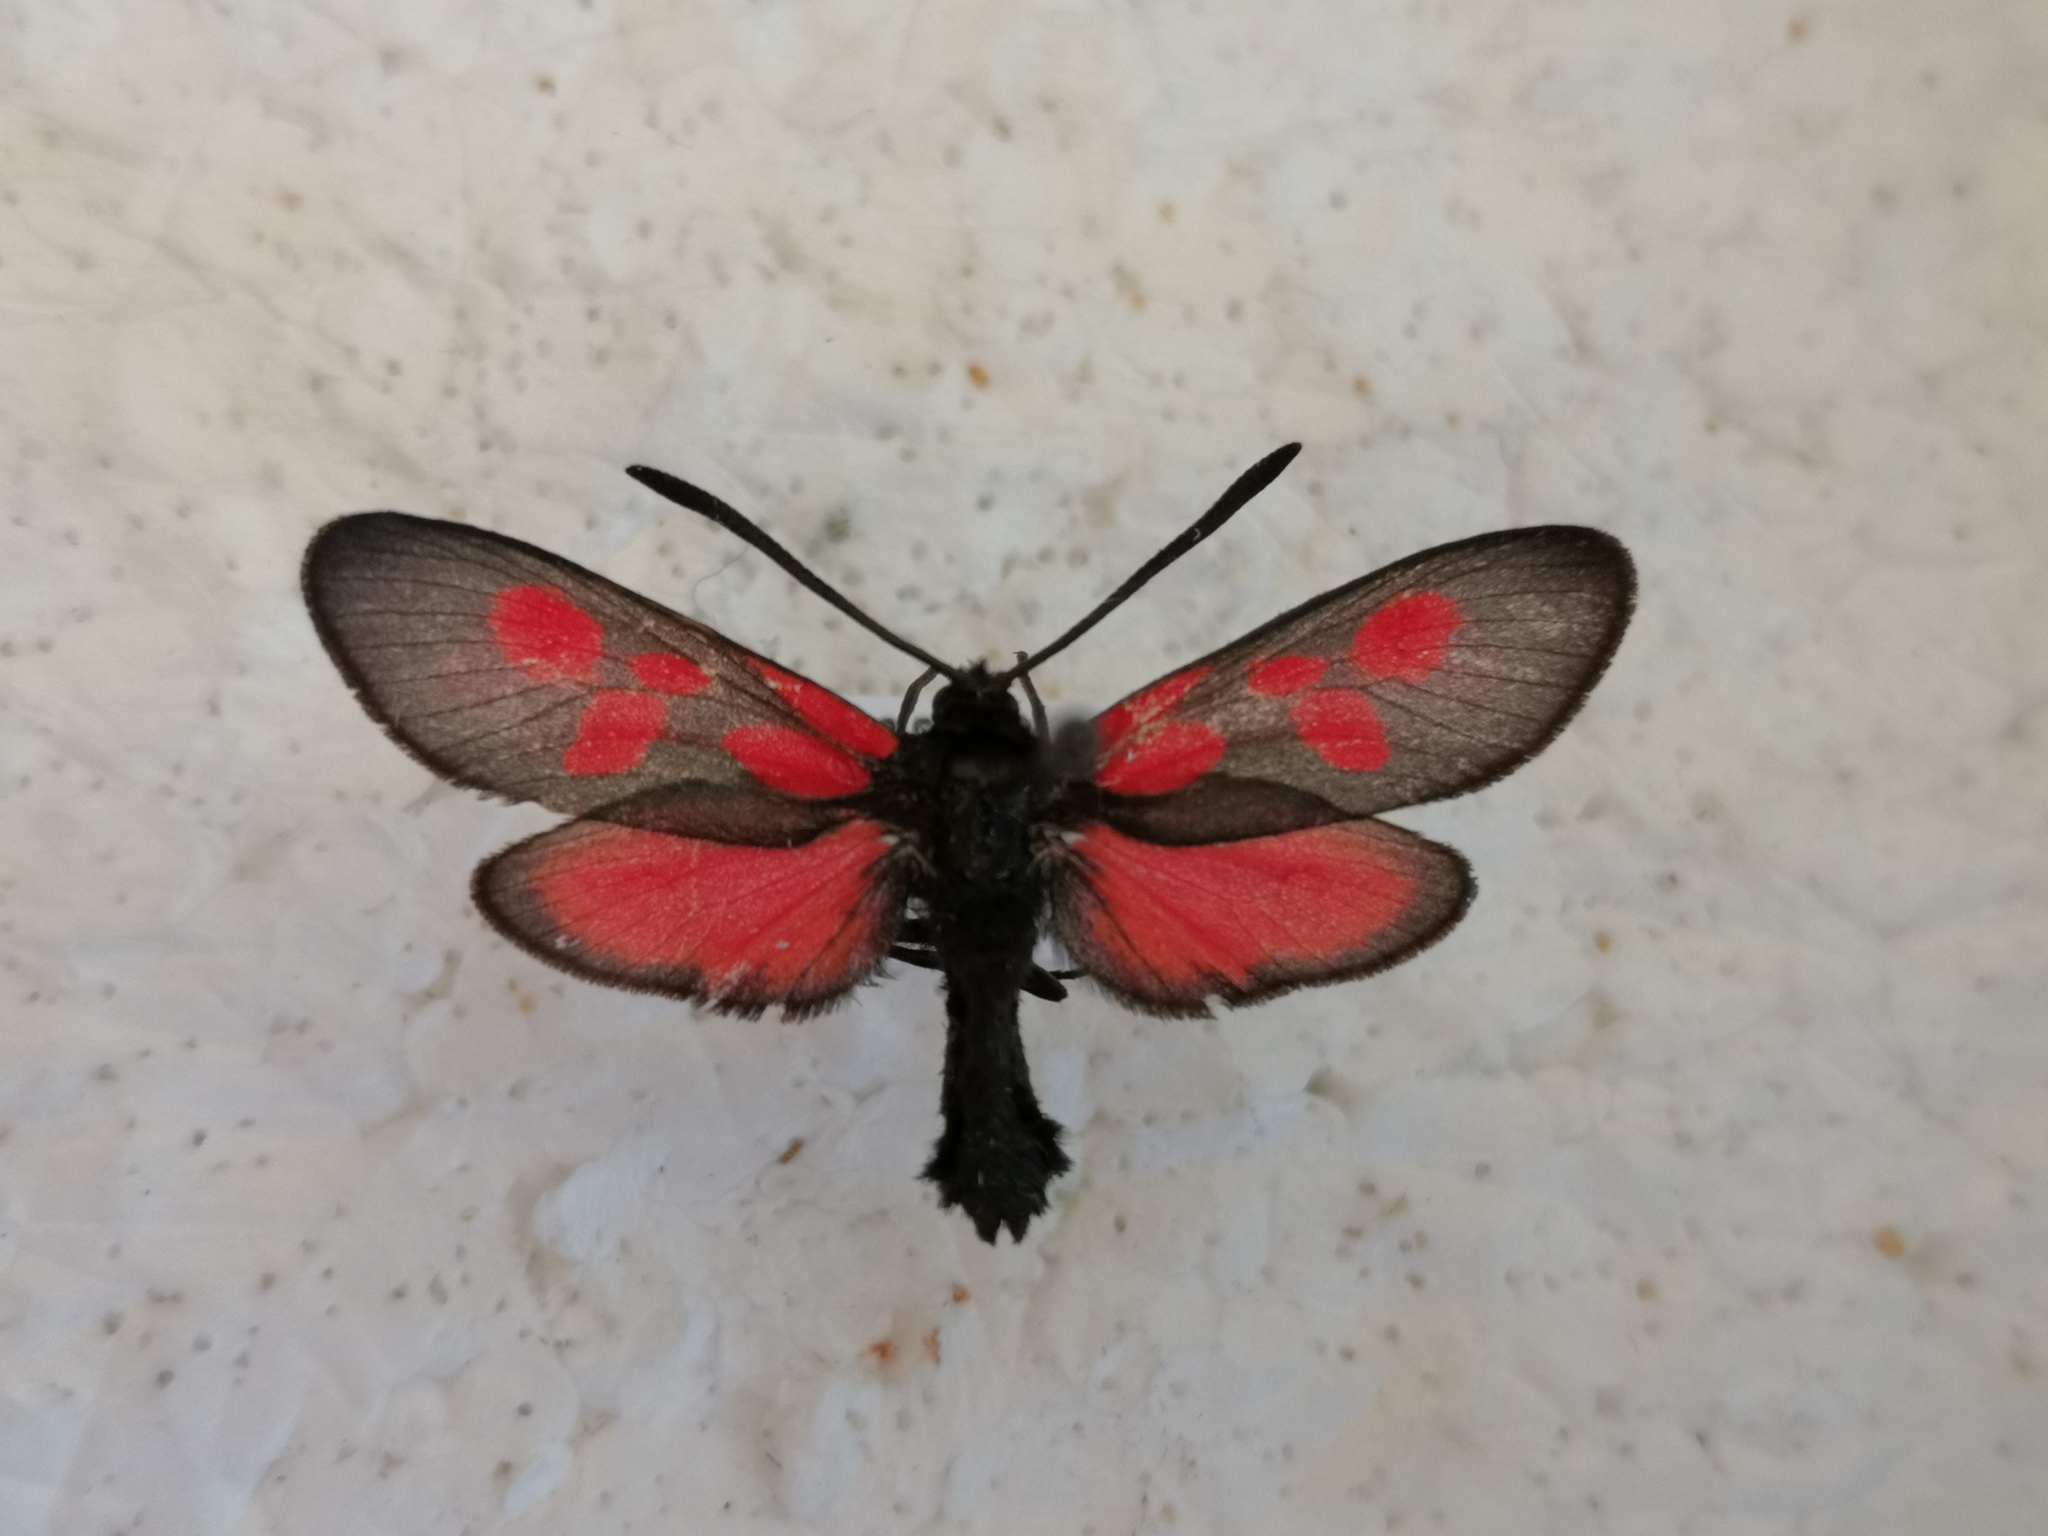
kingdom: Animalia
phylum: Arthropoda
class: Insecta
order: Lepidoptera
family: Zygaenidae
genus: Zygaena
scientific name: Zygaena trifolii
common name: Five-spot burnet
